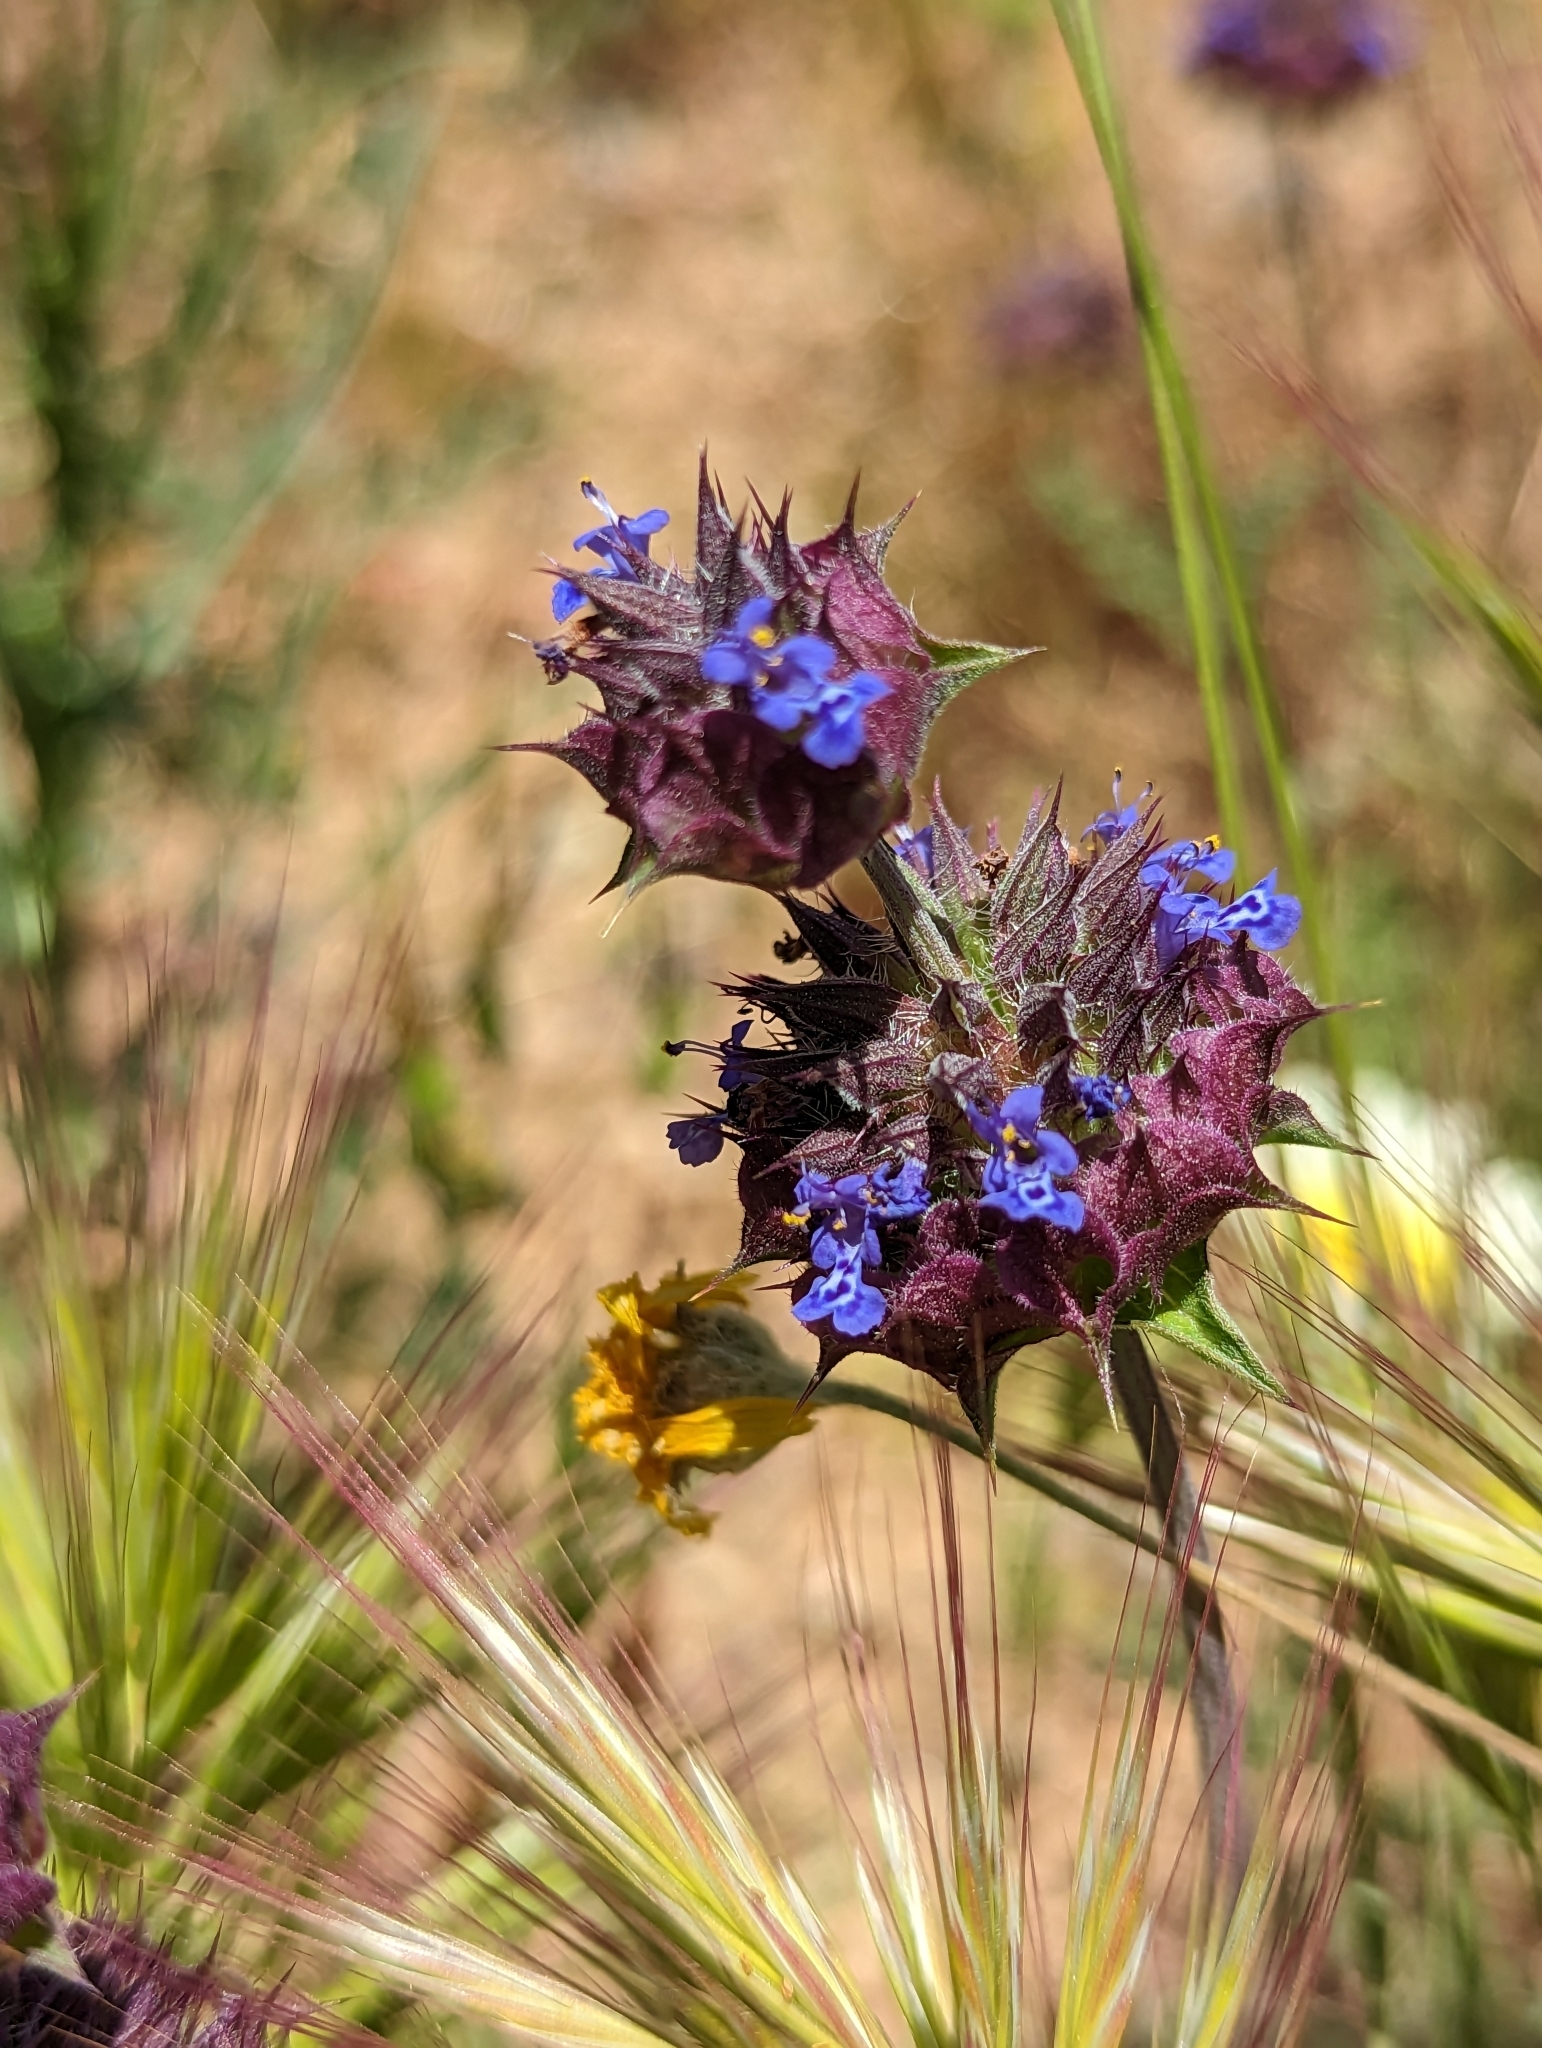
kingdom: Plantae
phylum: Tracheophyta
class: Magnoliopsida
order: Lamiales
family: Lamiaceae
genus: Salvia
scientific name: Salvia columbariae
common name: Chia
